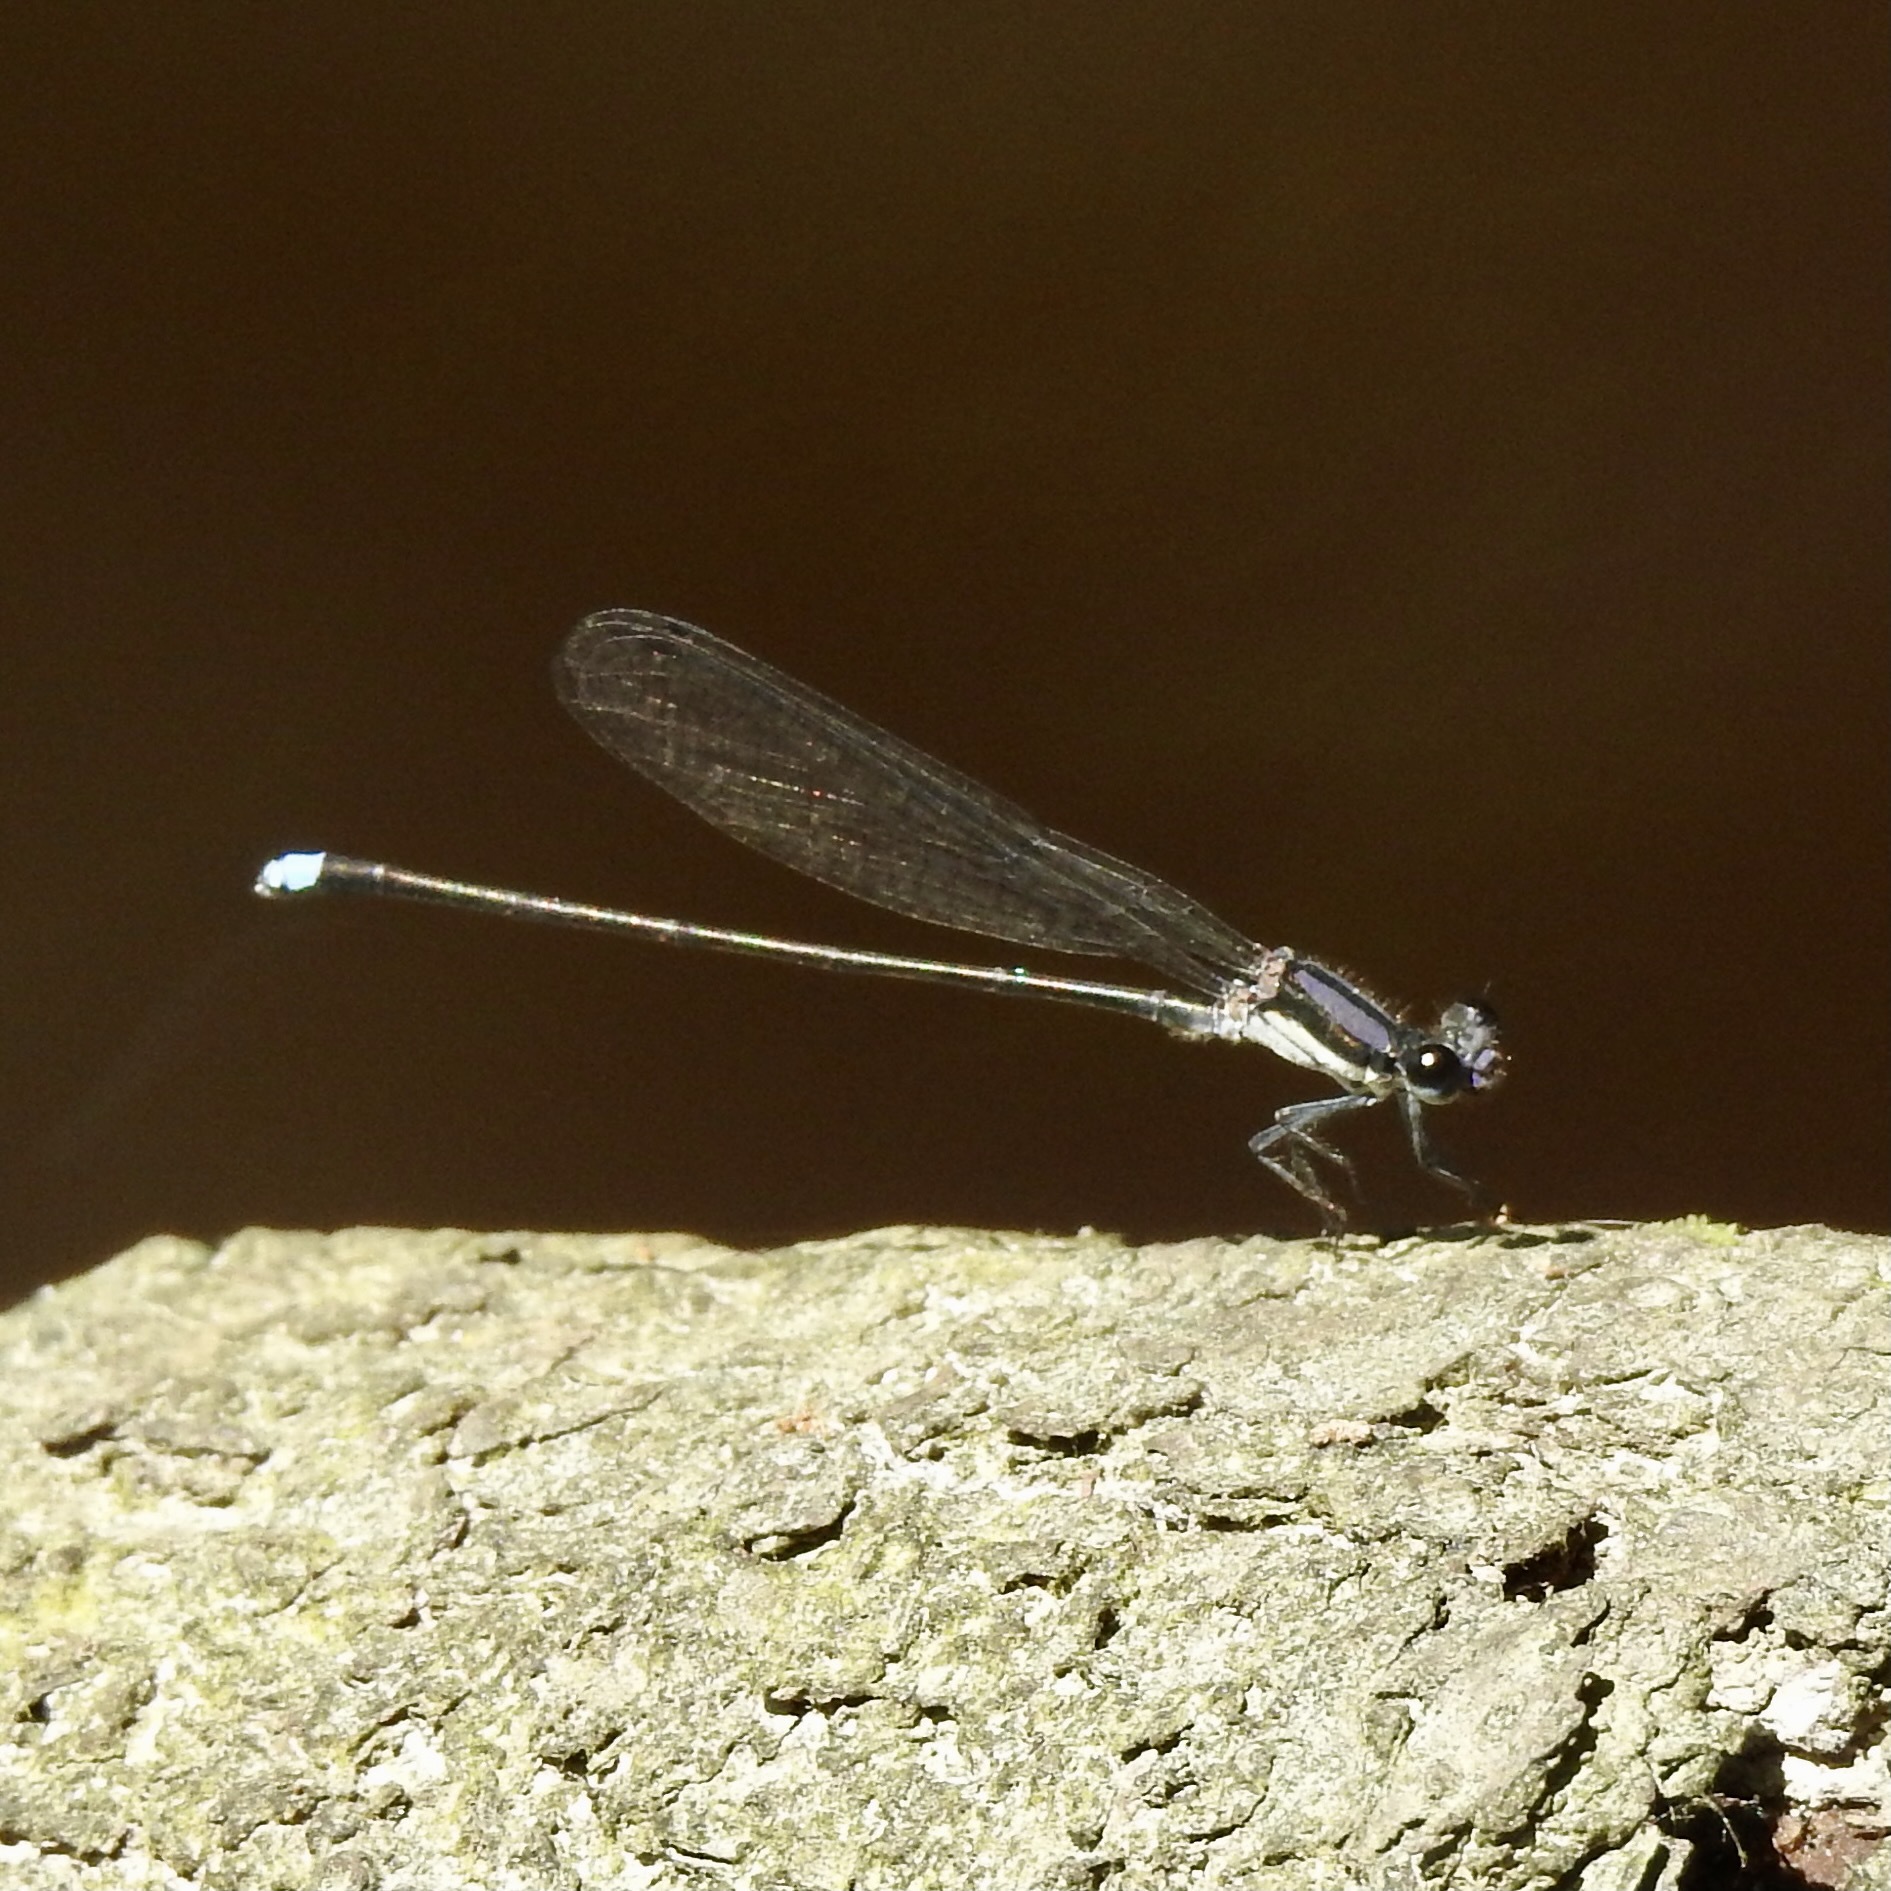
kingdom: Animalia
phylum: Arthropoda
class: Insecta
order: Odonata
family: Coenagrionidae
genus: Argia
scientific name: Argia tibialis
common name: Blue-tipped dancer
